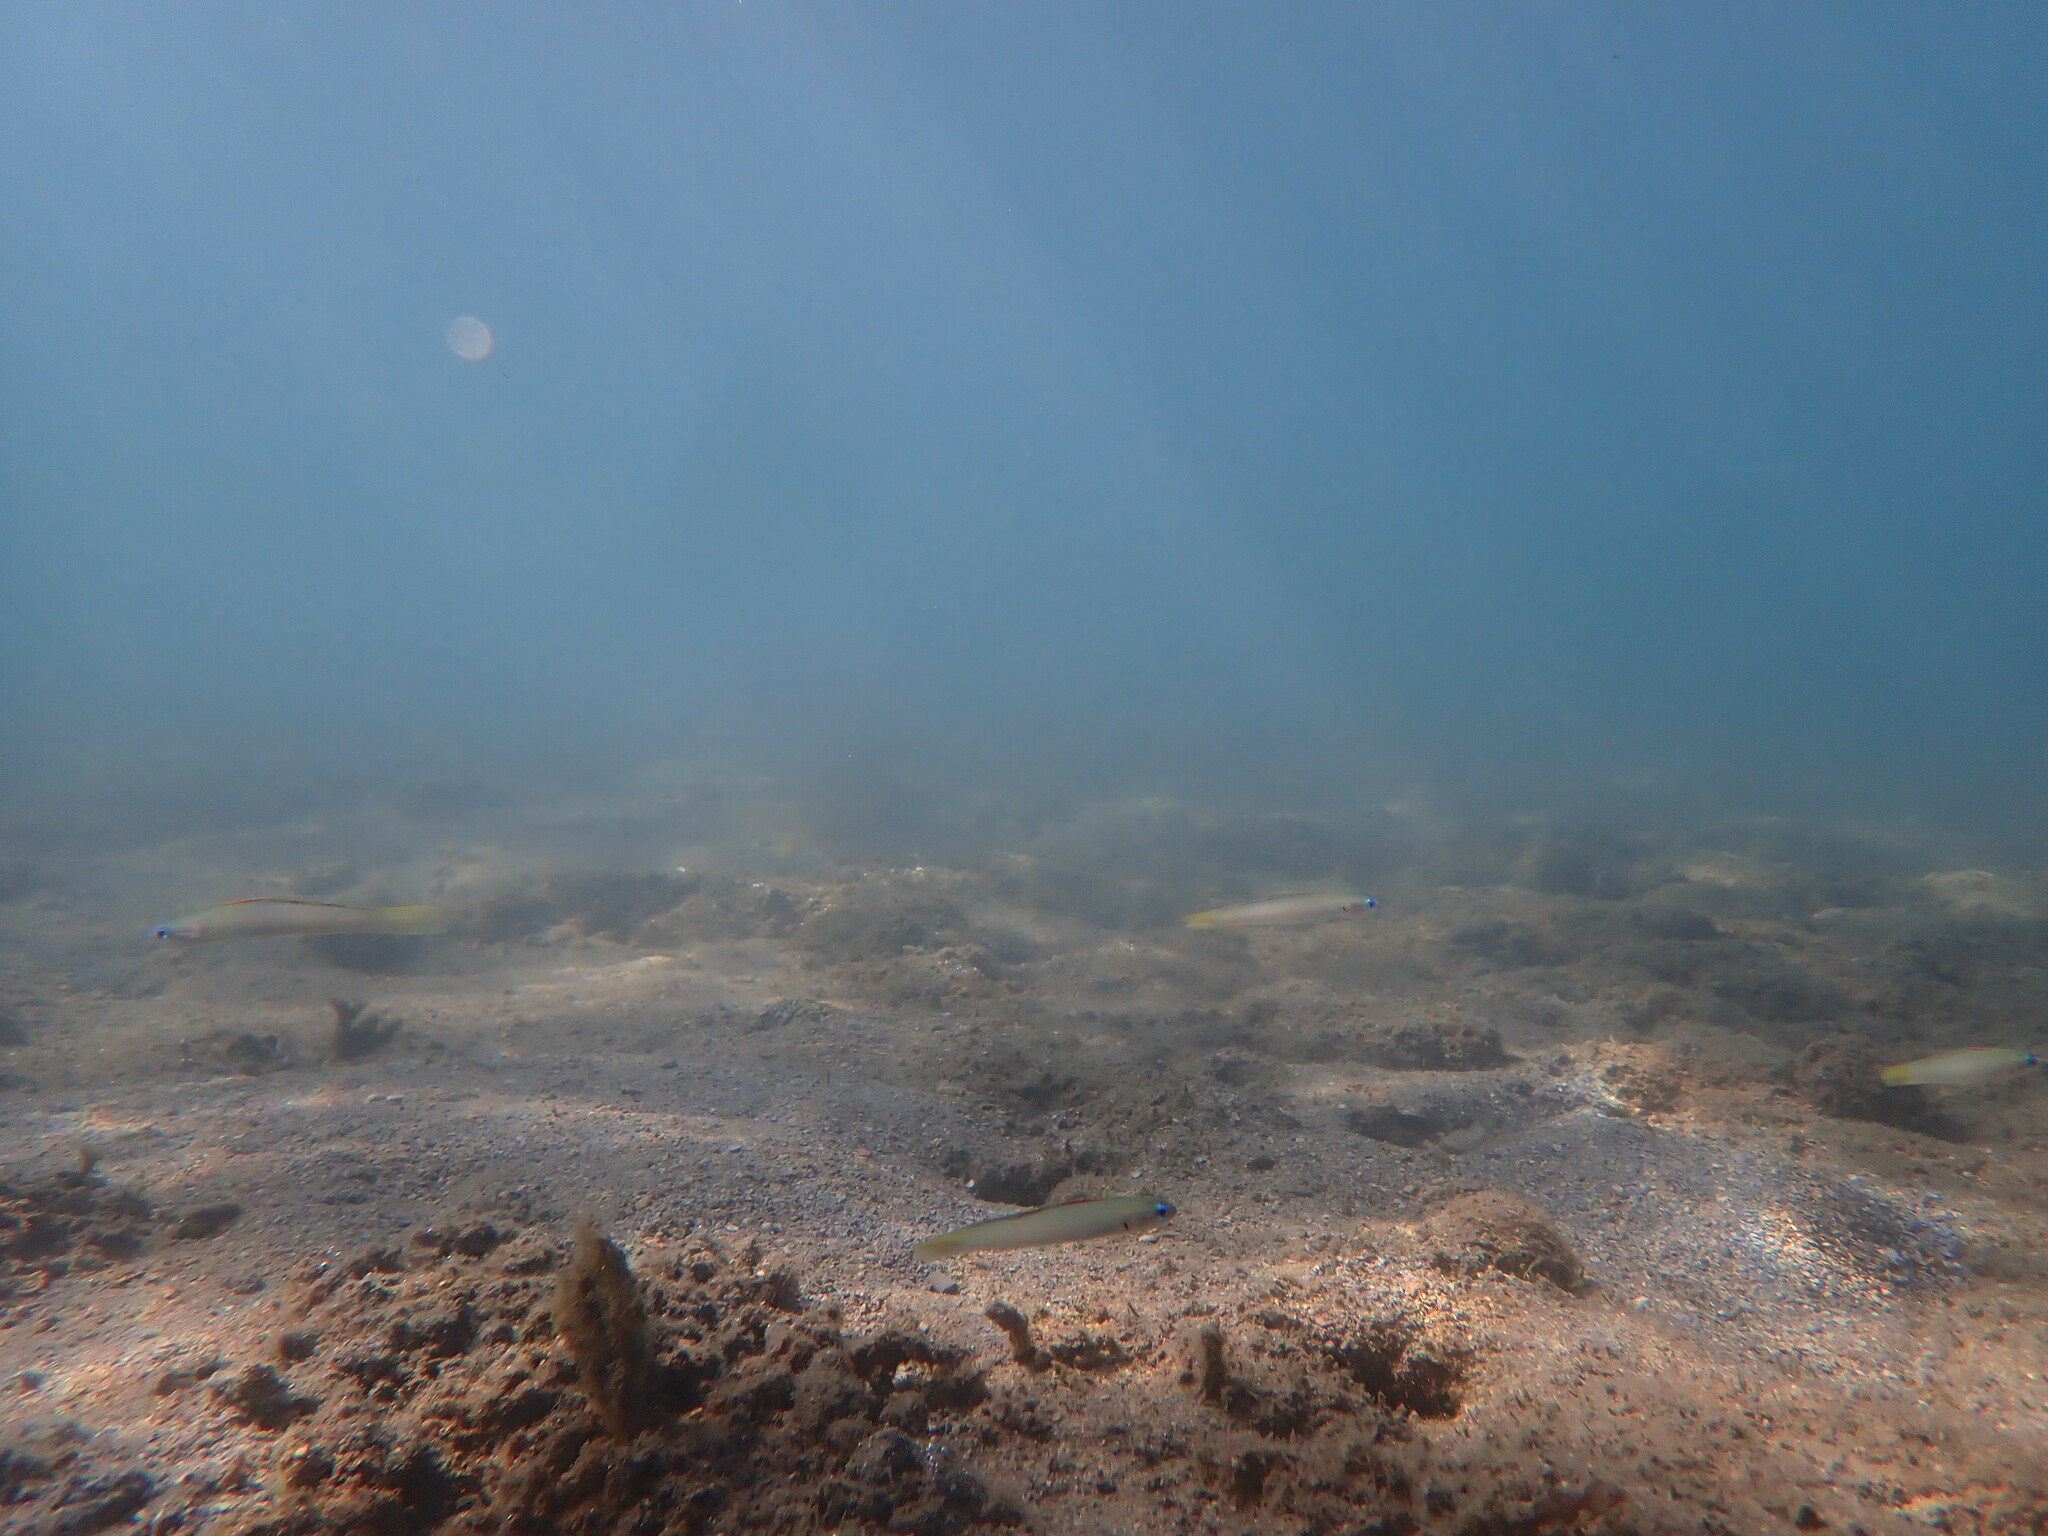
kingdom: Animalia
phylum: Chordata
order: Perciformes
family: Microdesmidae
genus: Ptereleotris
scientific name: Ptereleotris microlepis
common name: Blue gudgeon
